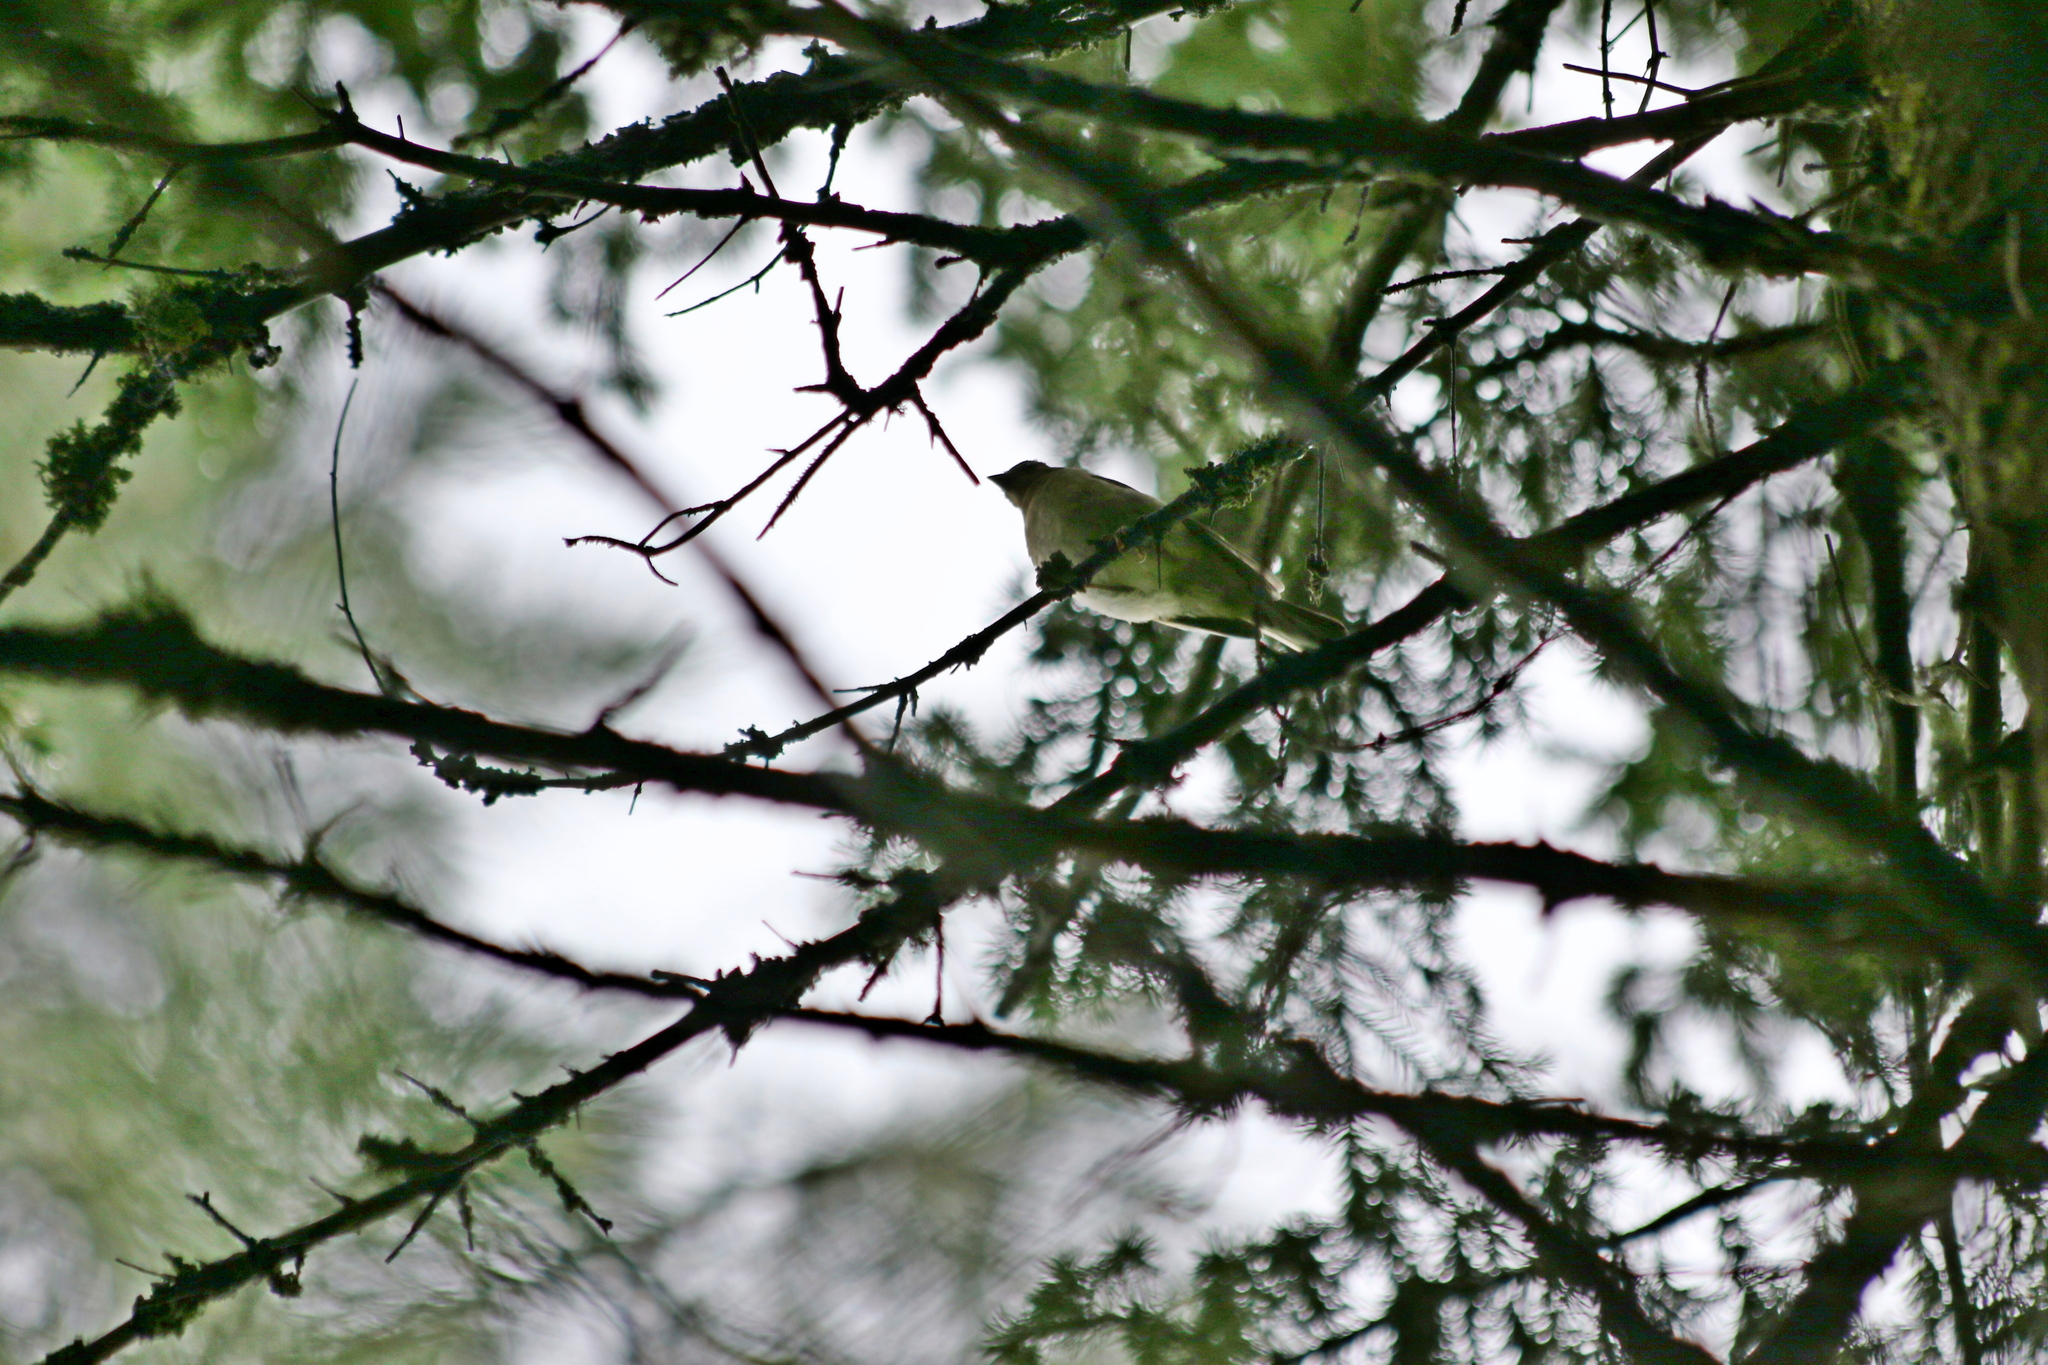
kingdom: Animalia
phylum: Chordata
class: Aves
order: Passeriformes
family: Fringillidae
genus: Fringilla
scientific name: Fringilla montifringilla
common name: Brambling
